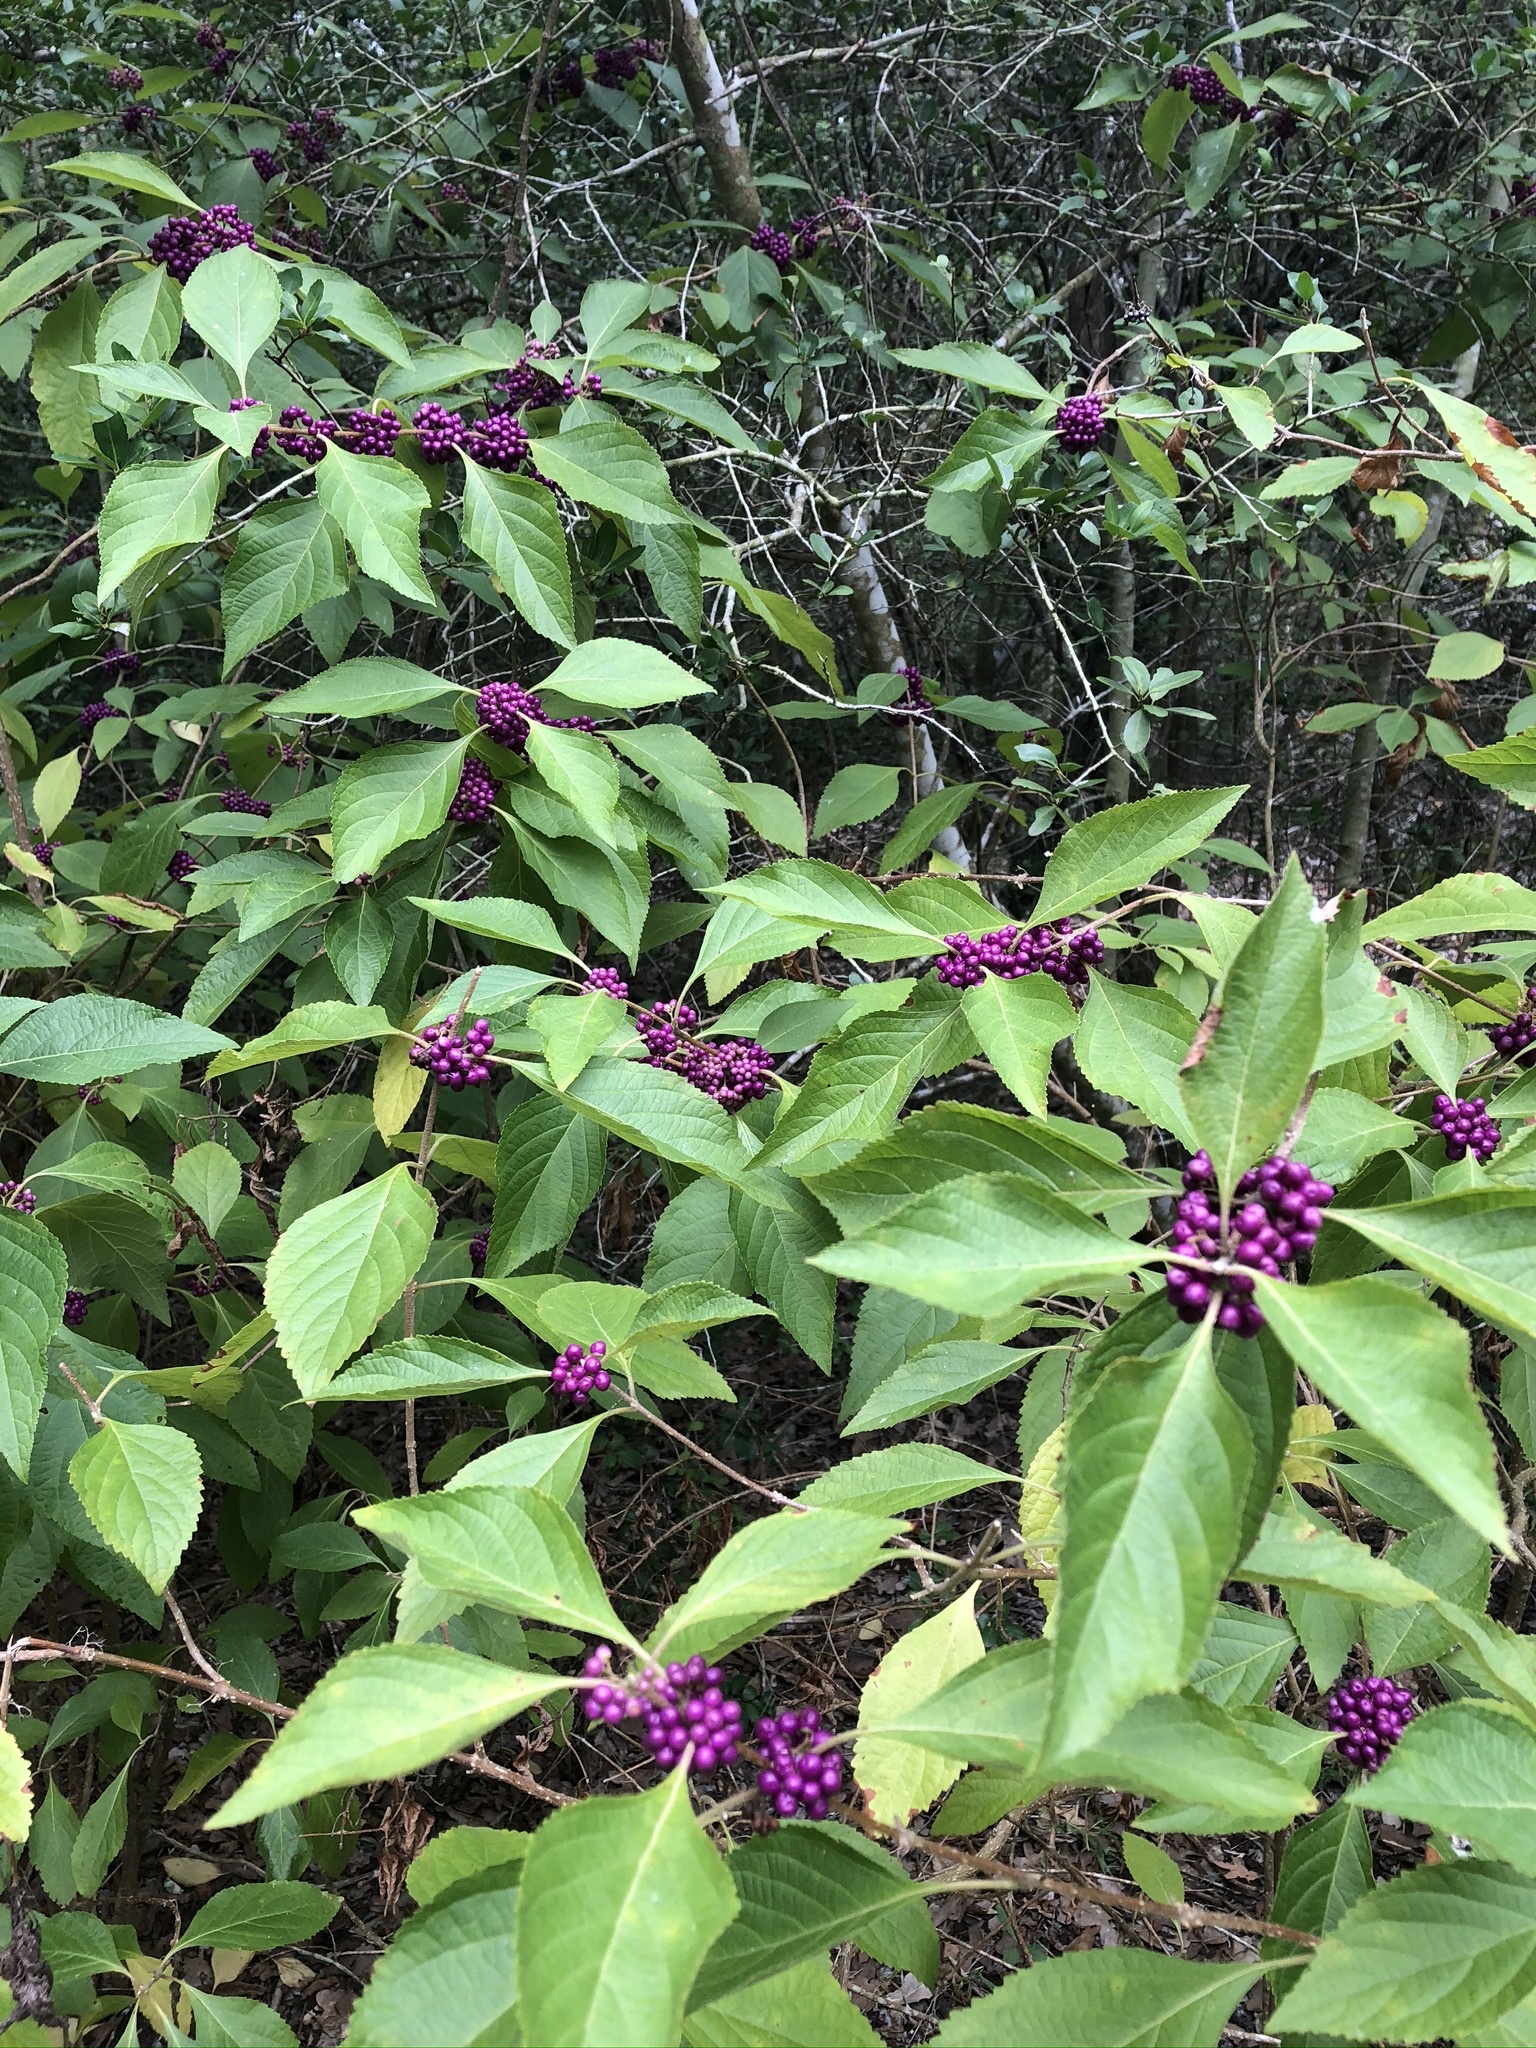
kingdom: Plantae
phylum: Tracheophyta
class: Magnoliopsida
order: Lamiales
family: Lamiaceae
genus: Callicarpa
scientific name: Callicarpa americana
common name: American beautyberry
